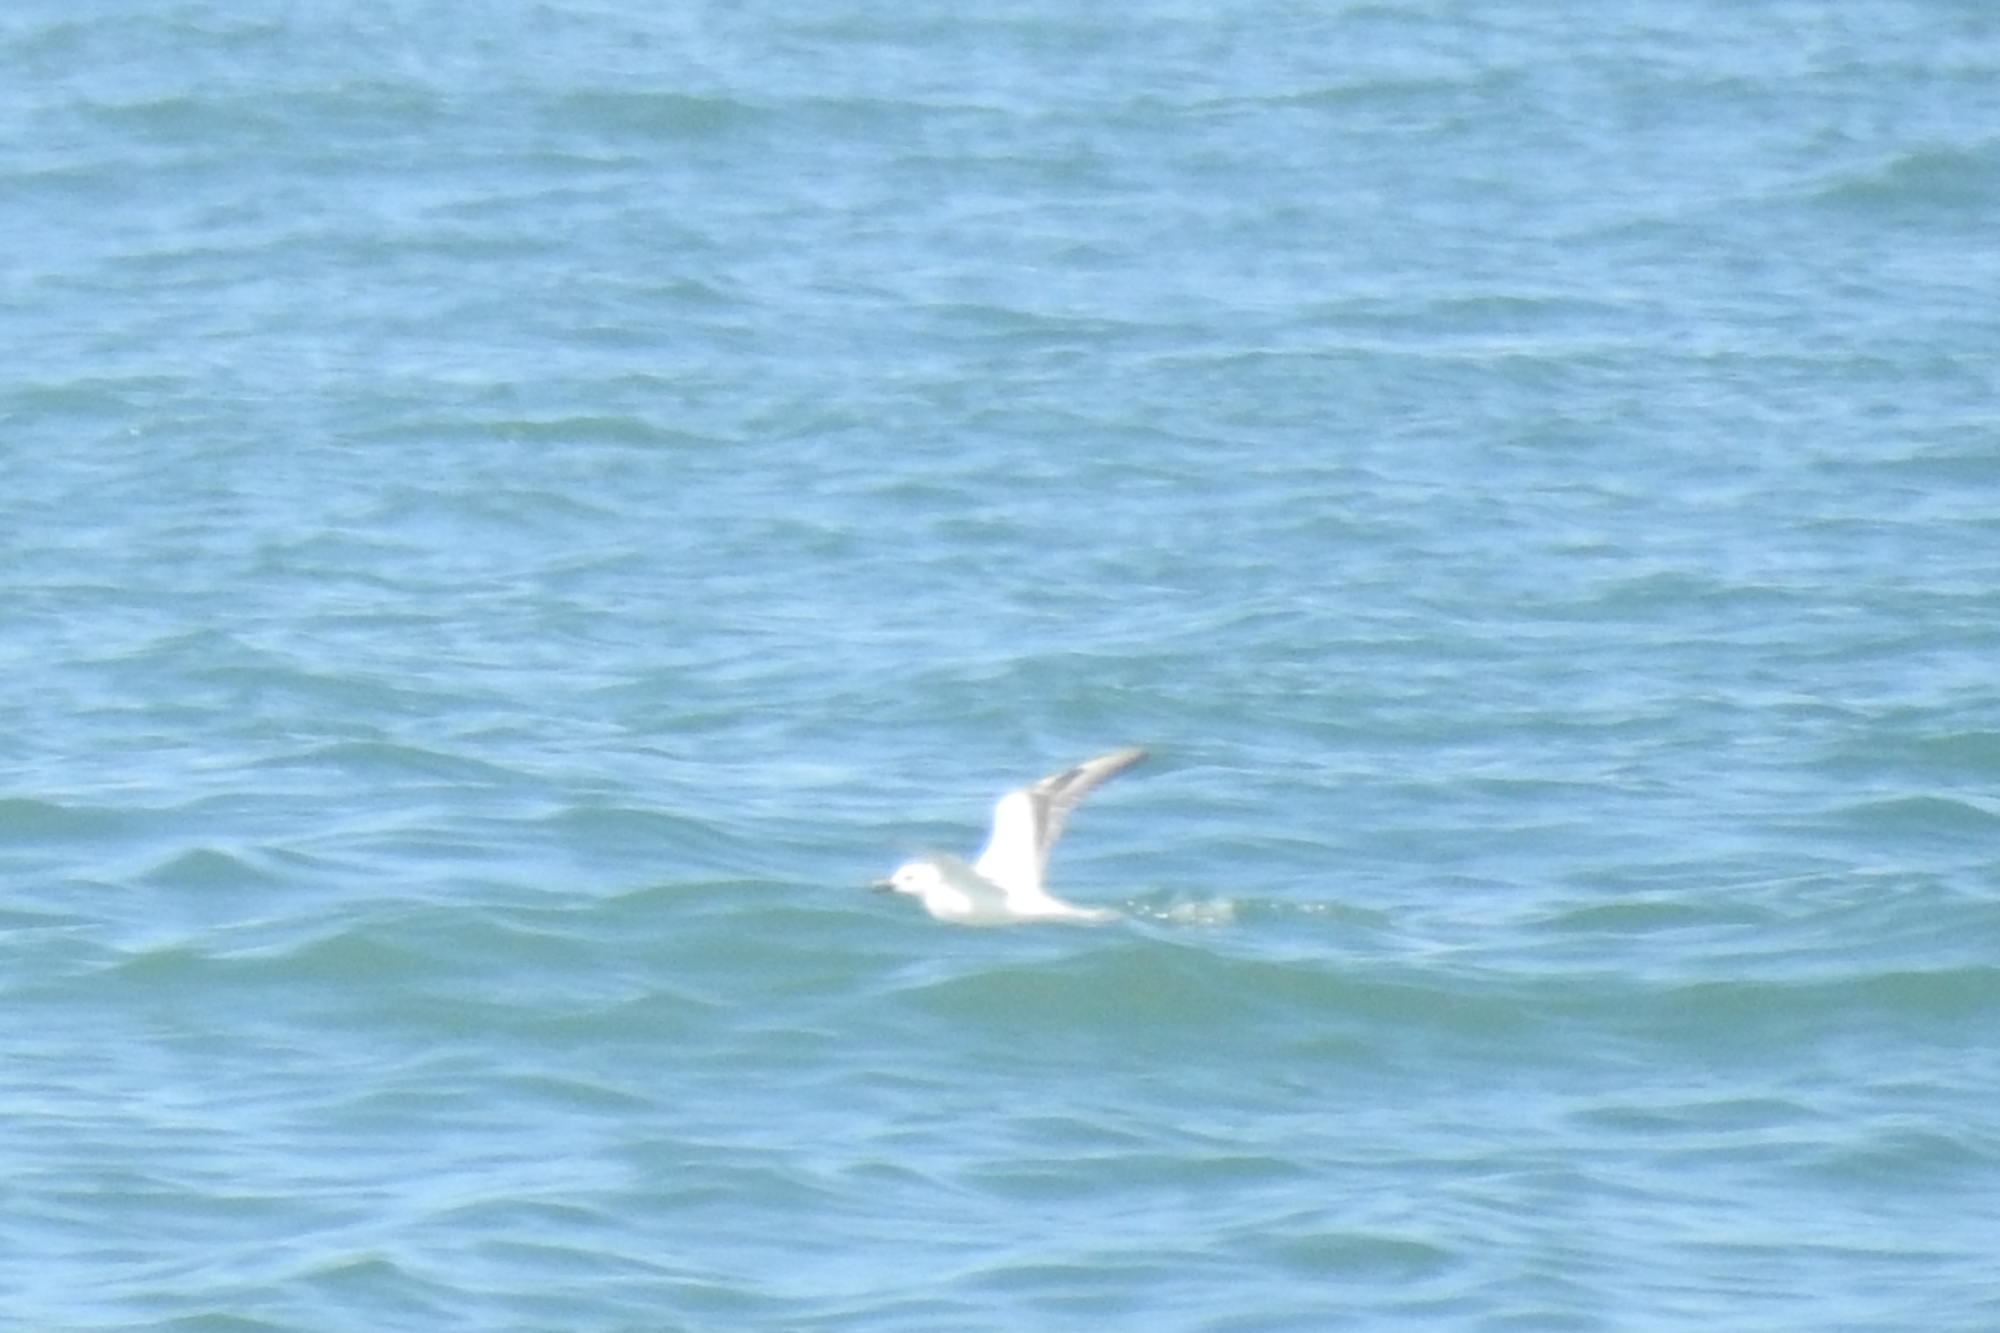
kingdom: Animalia
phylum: Chordata
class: Aves
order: Charadriiformes
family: Dromadidae
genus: Dromas
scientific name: Dromas ardeola
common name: Crab-plover
